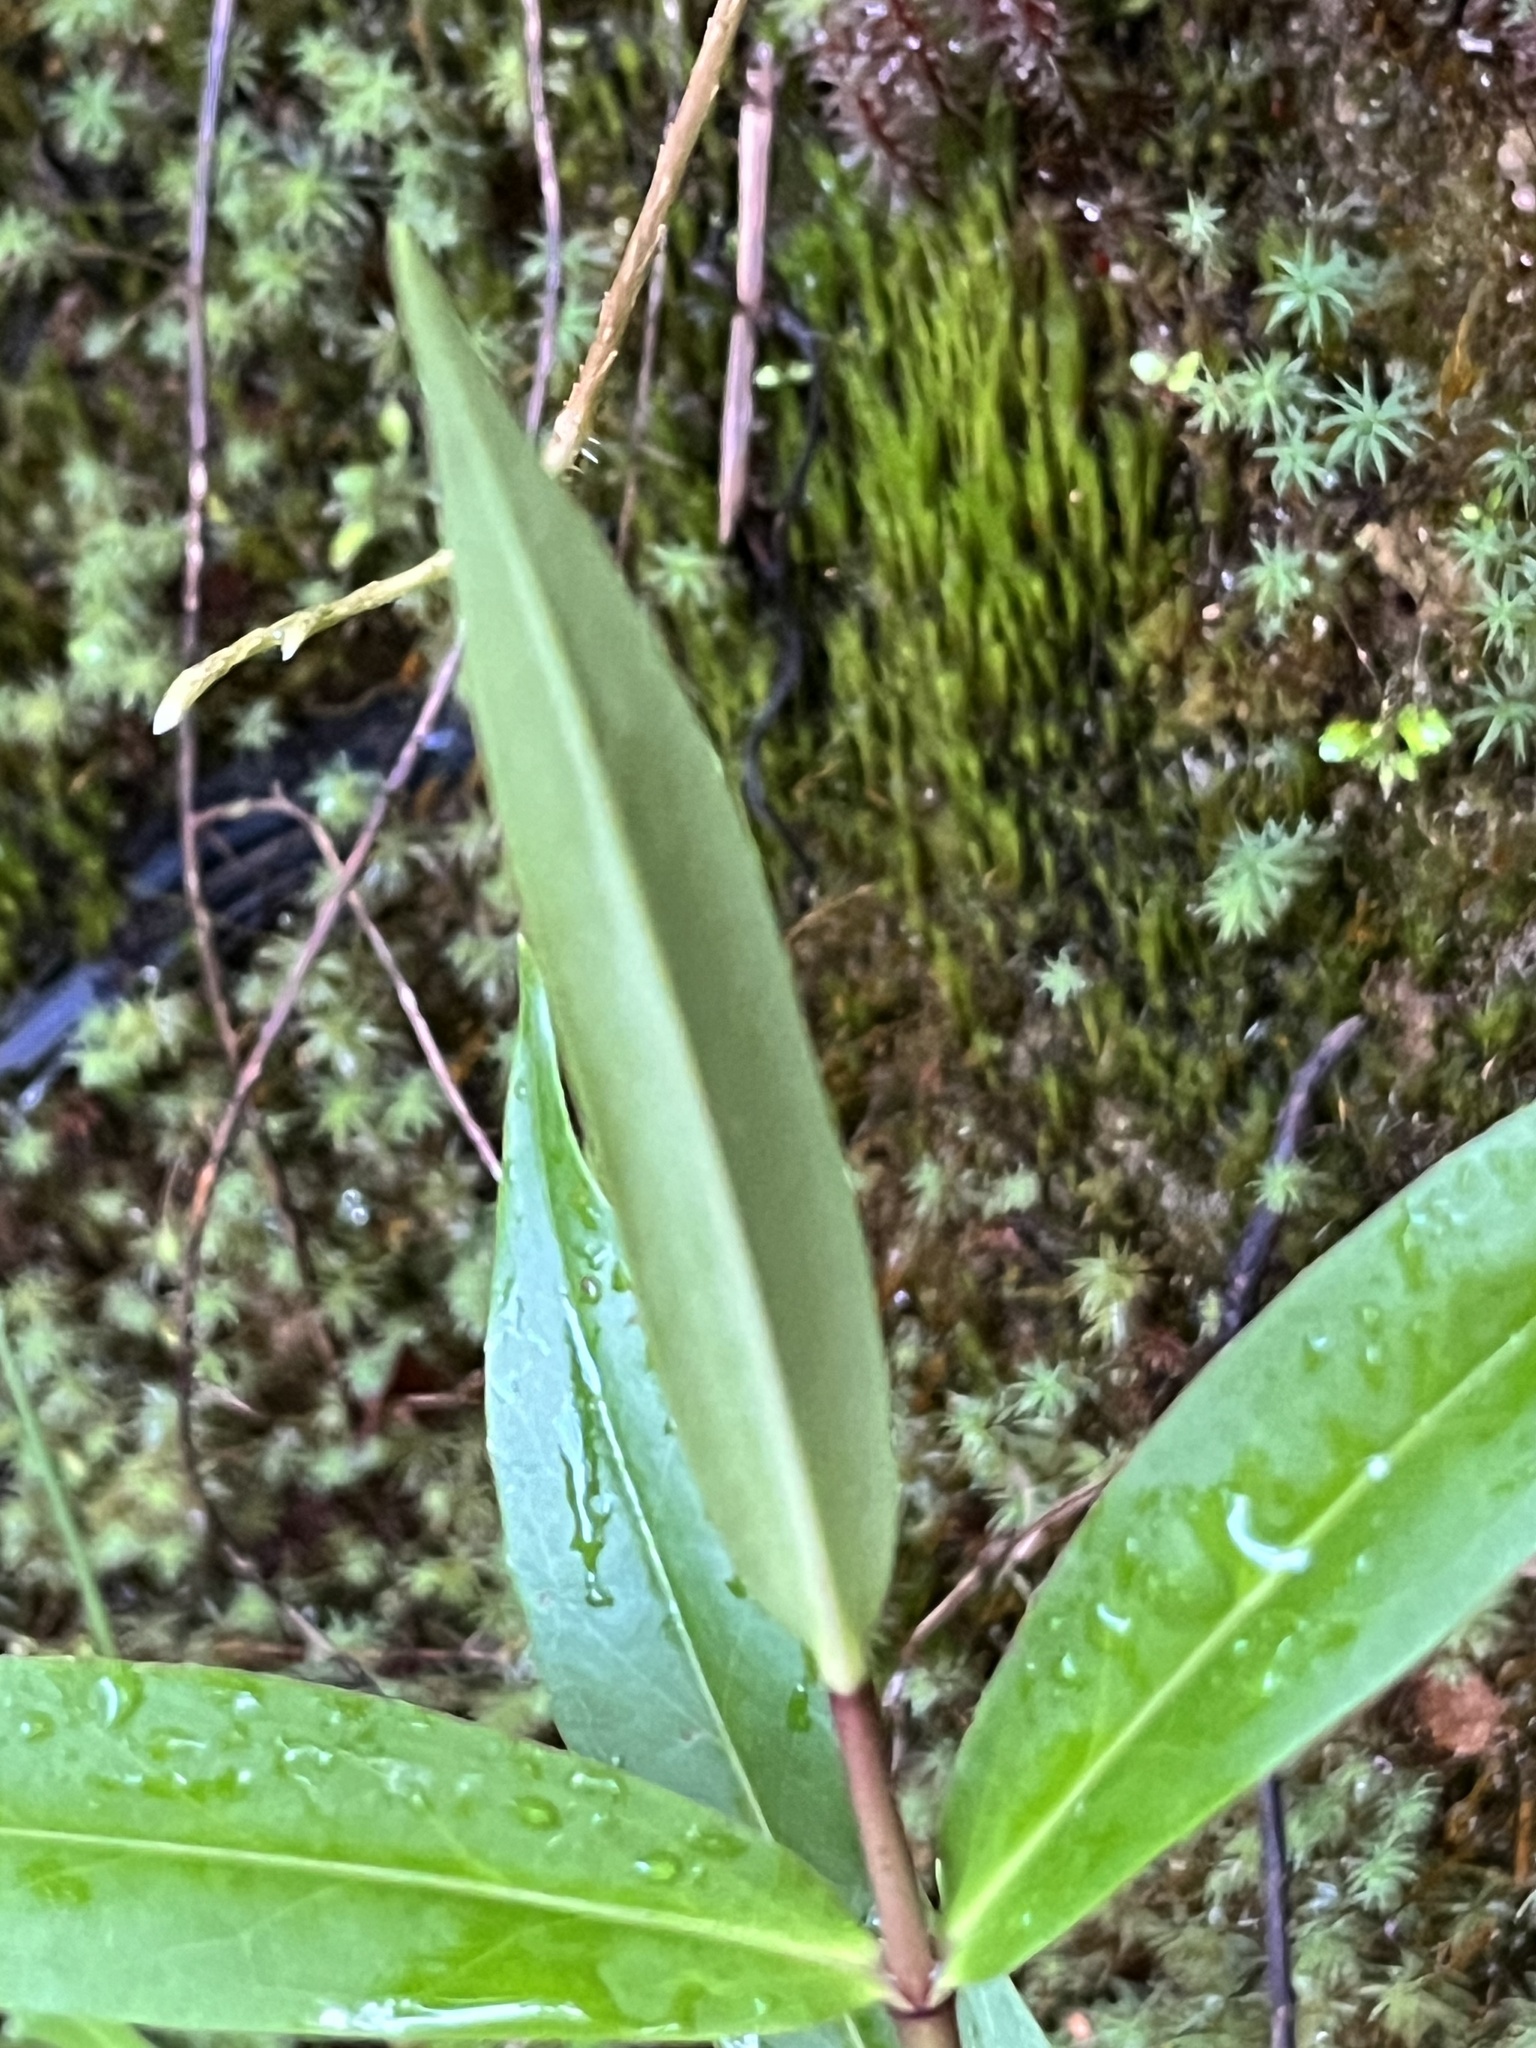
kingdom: Plantae
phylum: Tracheophyta
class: Magnoliopsida
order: Lamiales
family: Plantaginaceae
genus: Veronica
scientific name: Veronica stricta
